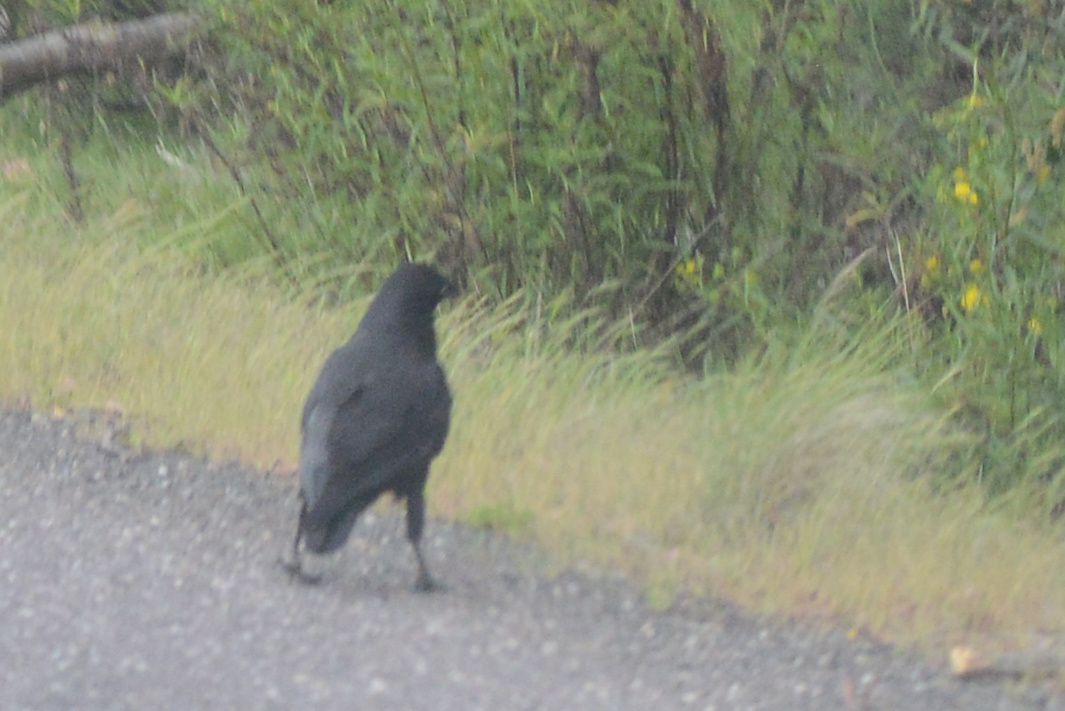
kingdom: Animalia
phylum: Chordata
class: Aves
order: Passeriformes
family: Corvidae
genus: Corvus
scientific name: Corvus tasmanicus
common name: Forest raven
